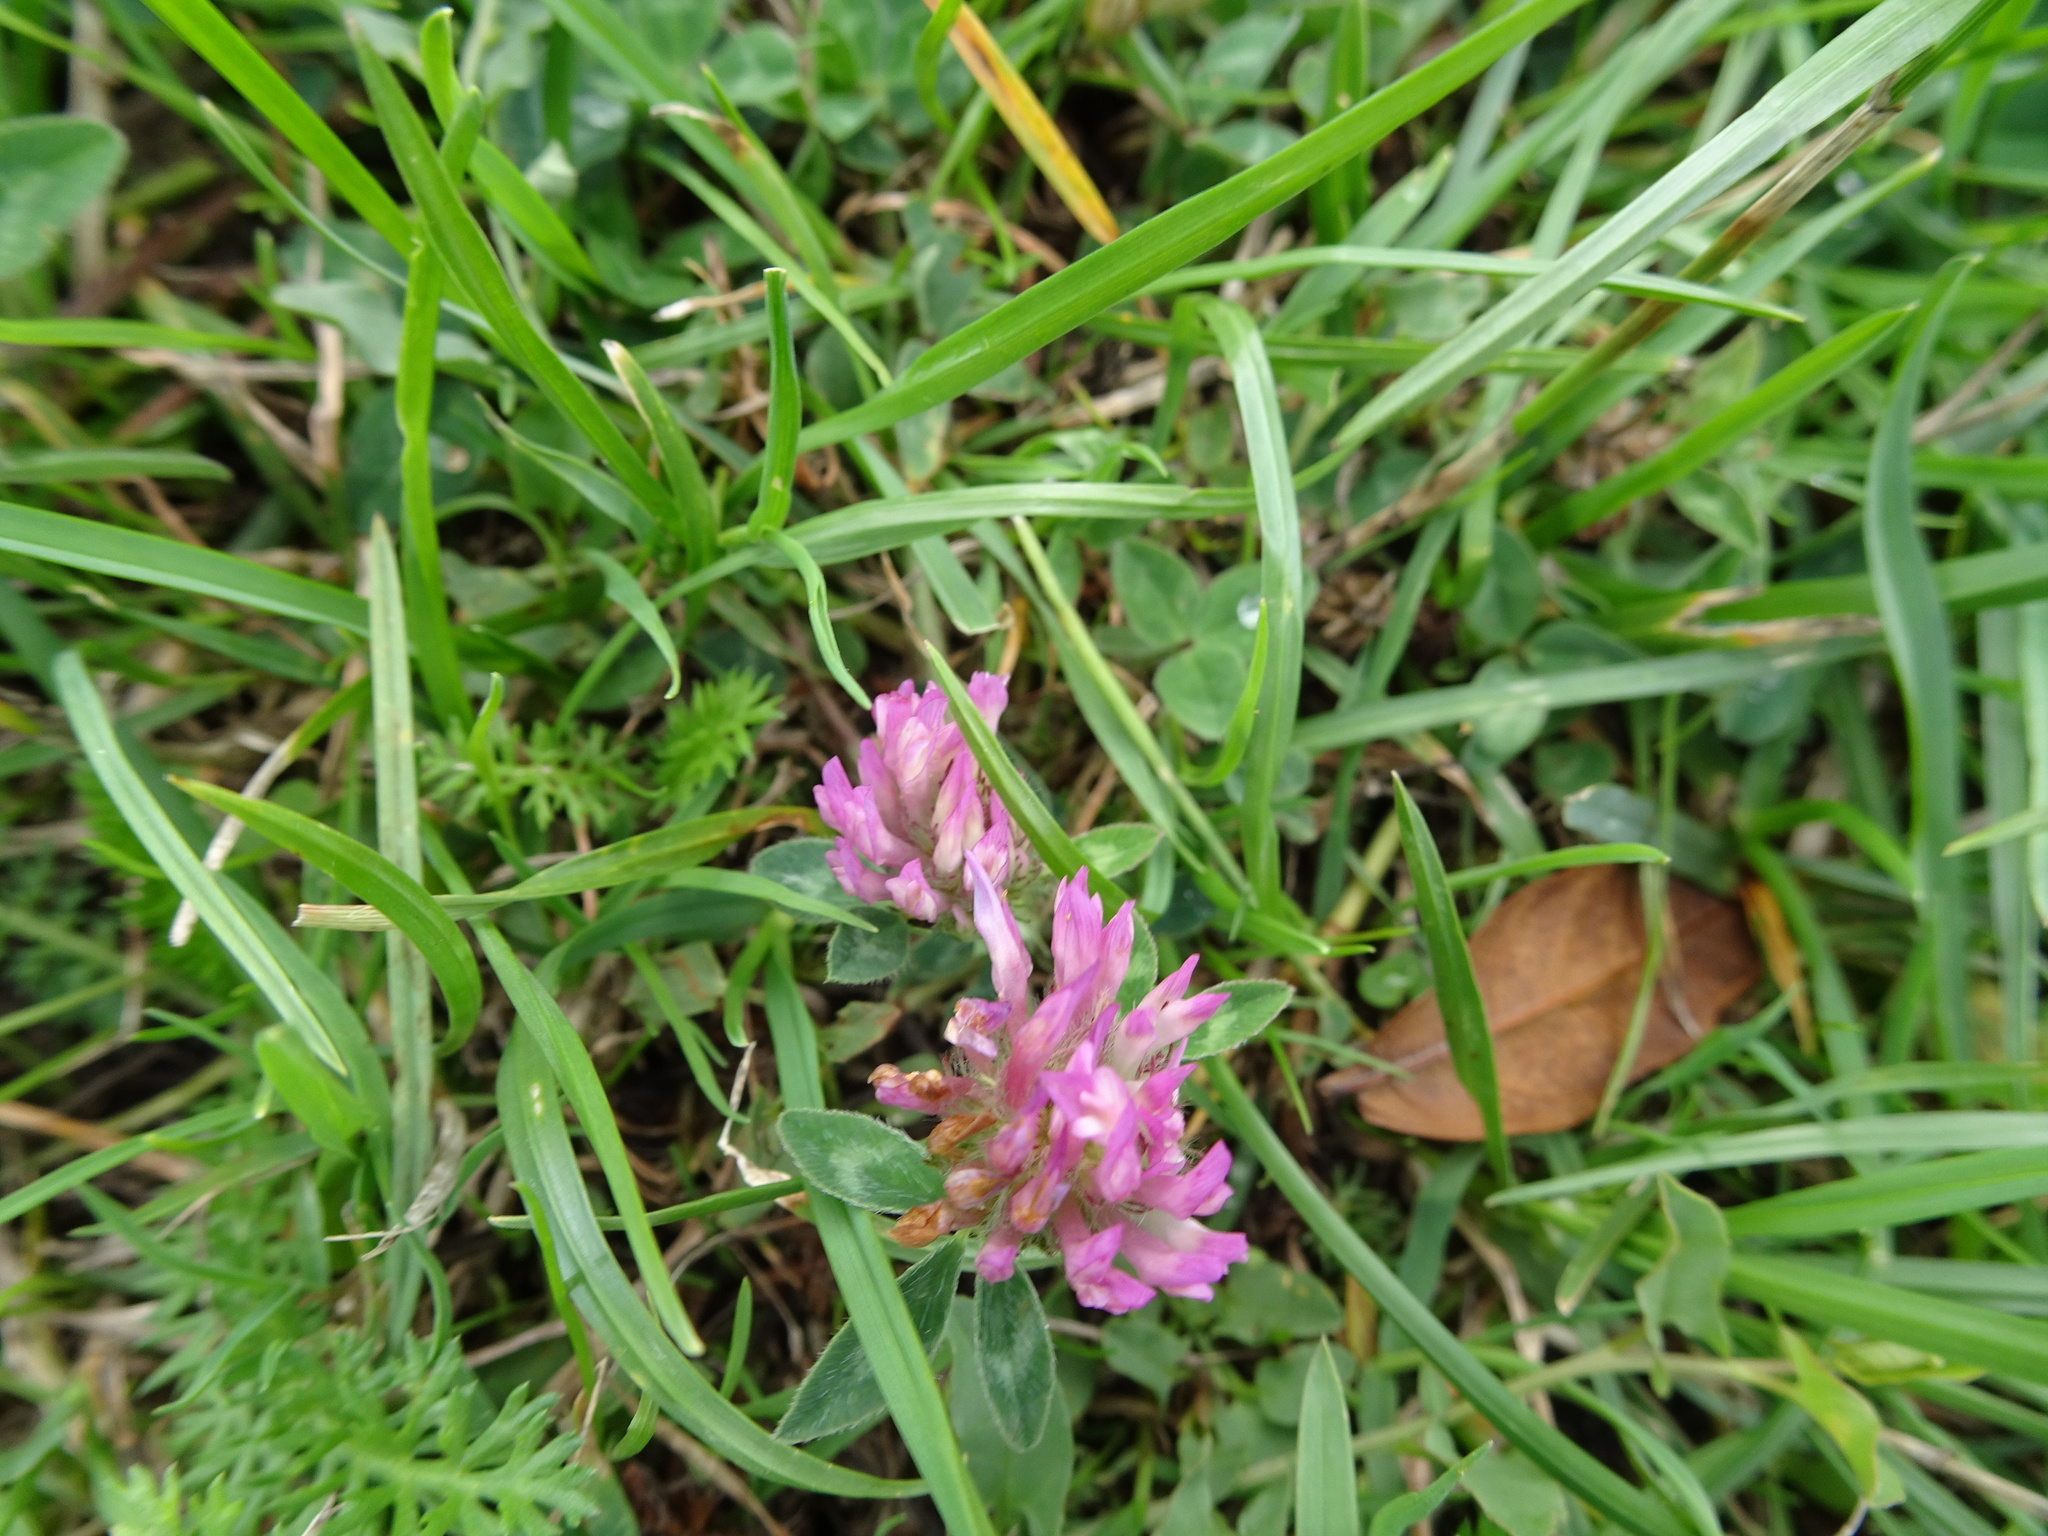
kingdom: Plantae
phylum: Tracheophyta
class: Magnoliopsida
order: Fabales
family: Fabaceae
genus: Trifolium
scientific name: Trifolium pratense
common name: Red clover
